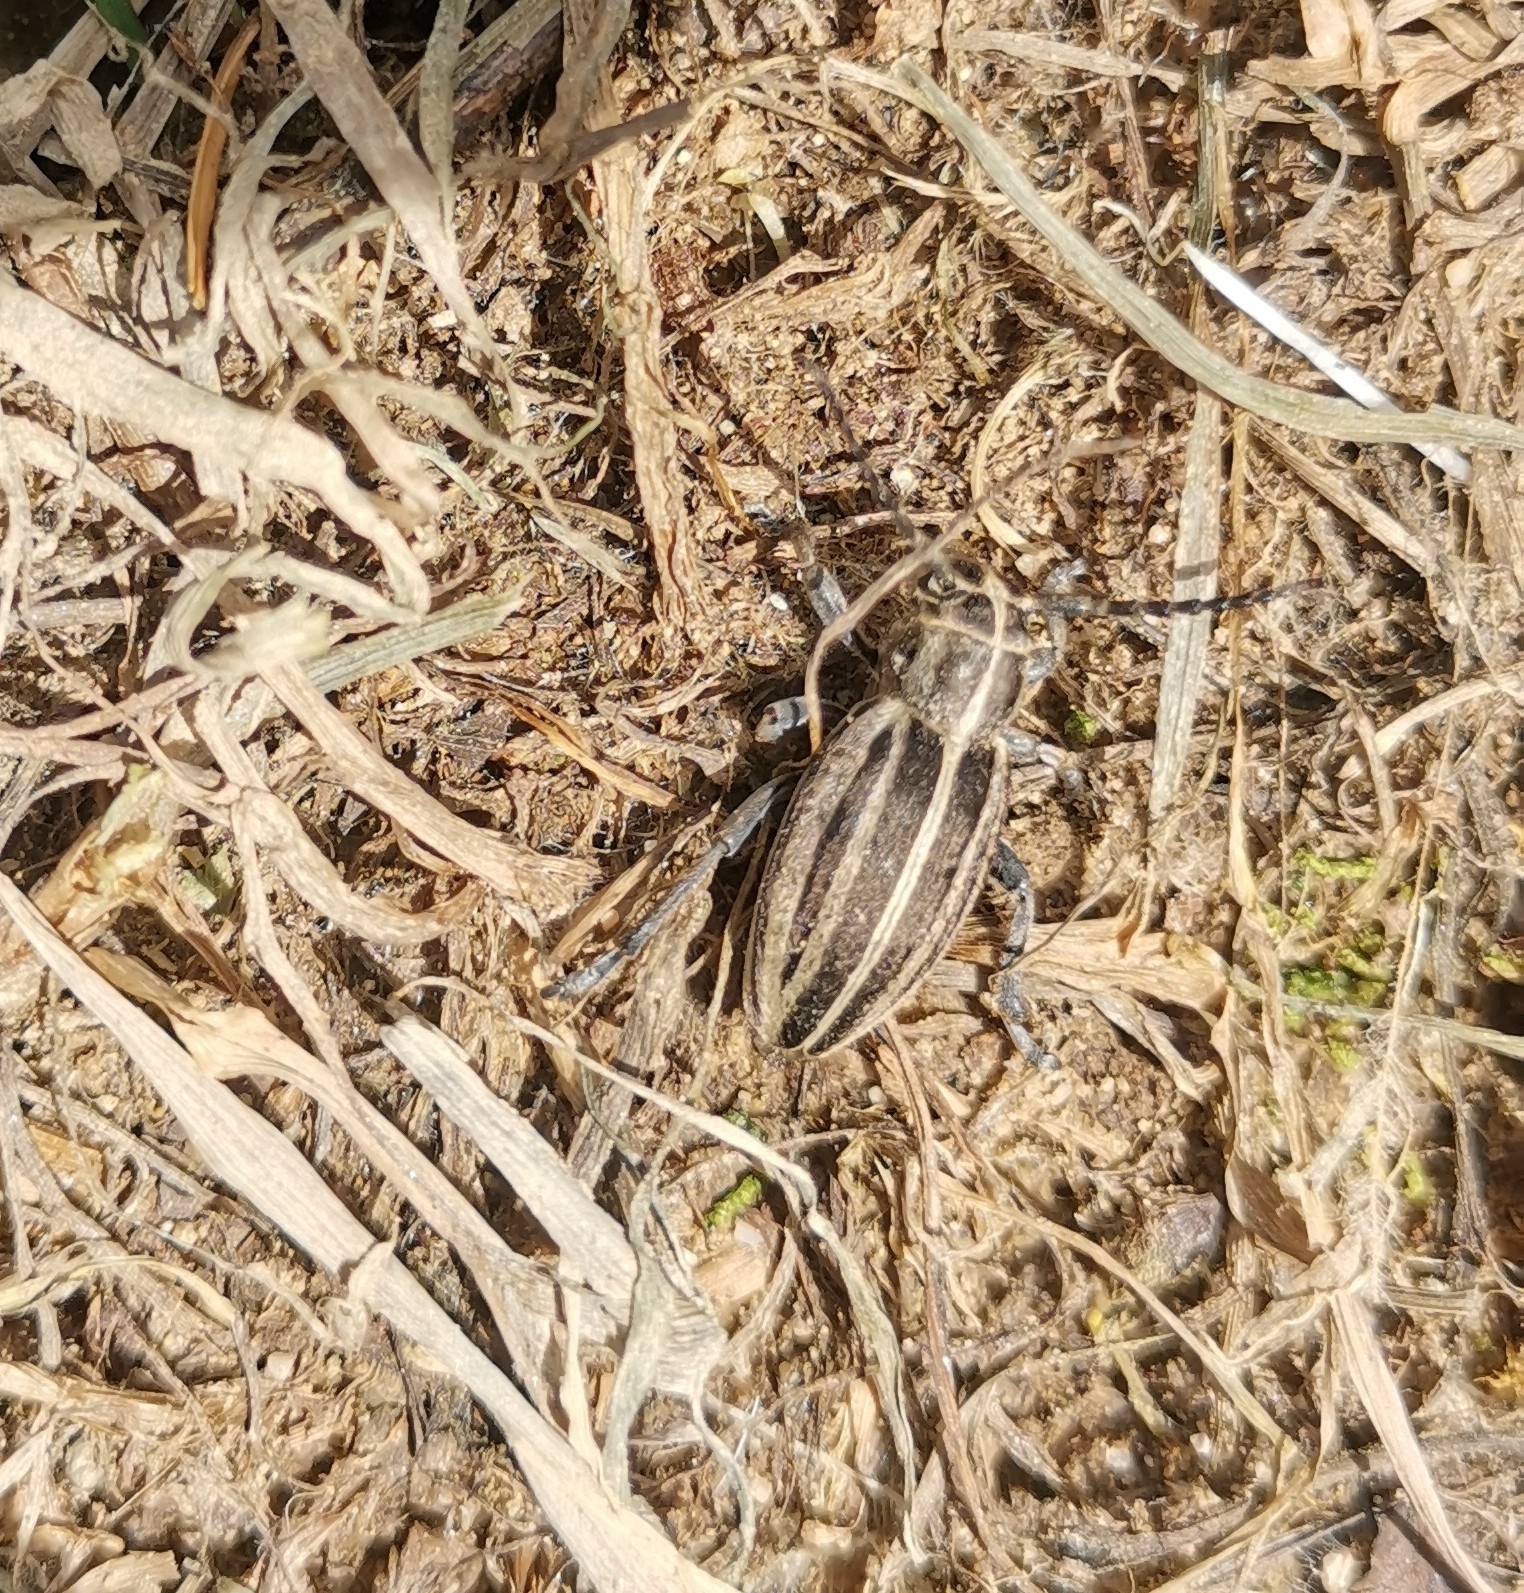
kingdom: Animalia
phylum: Arthropoda
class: Insecta
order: Coleoptera
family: Cerambycidae
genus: Dorcadion
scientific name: Dorcadion etruscum
